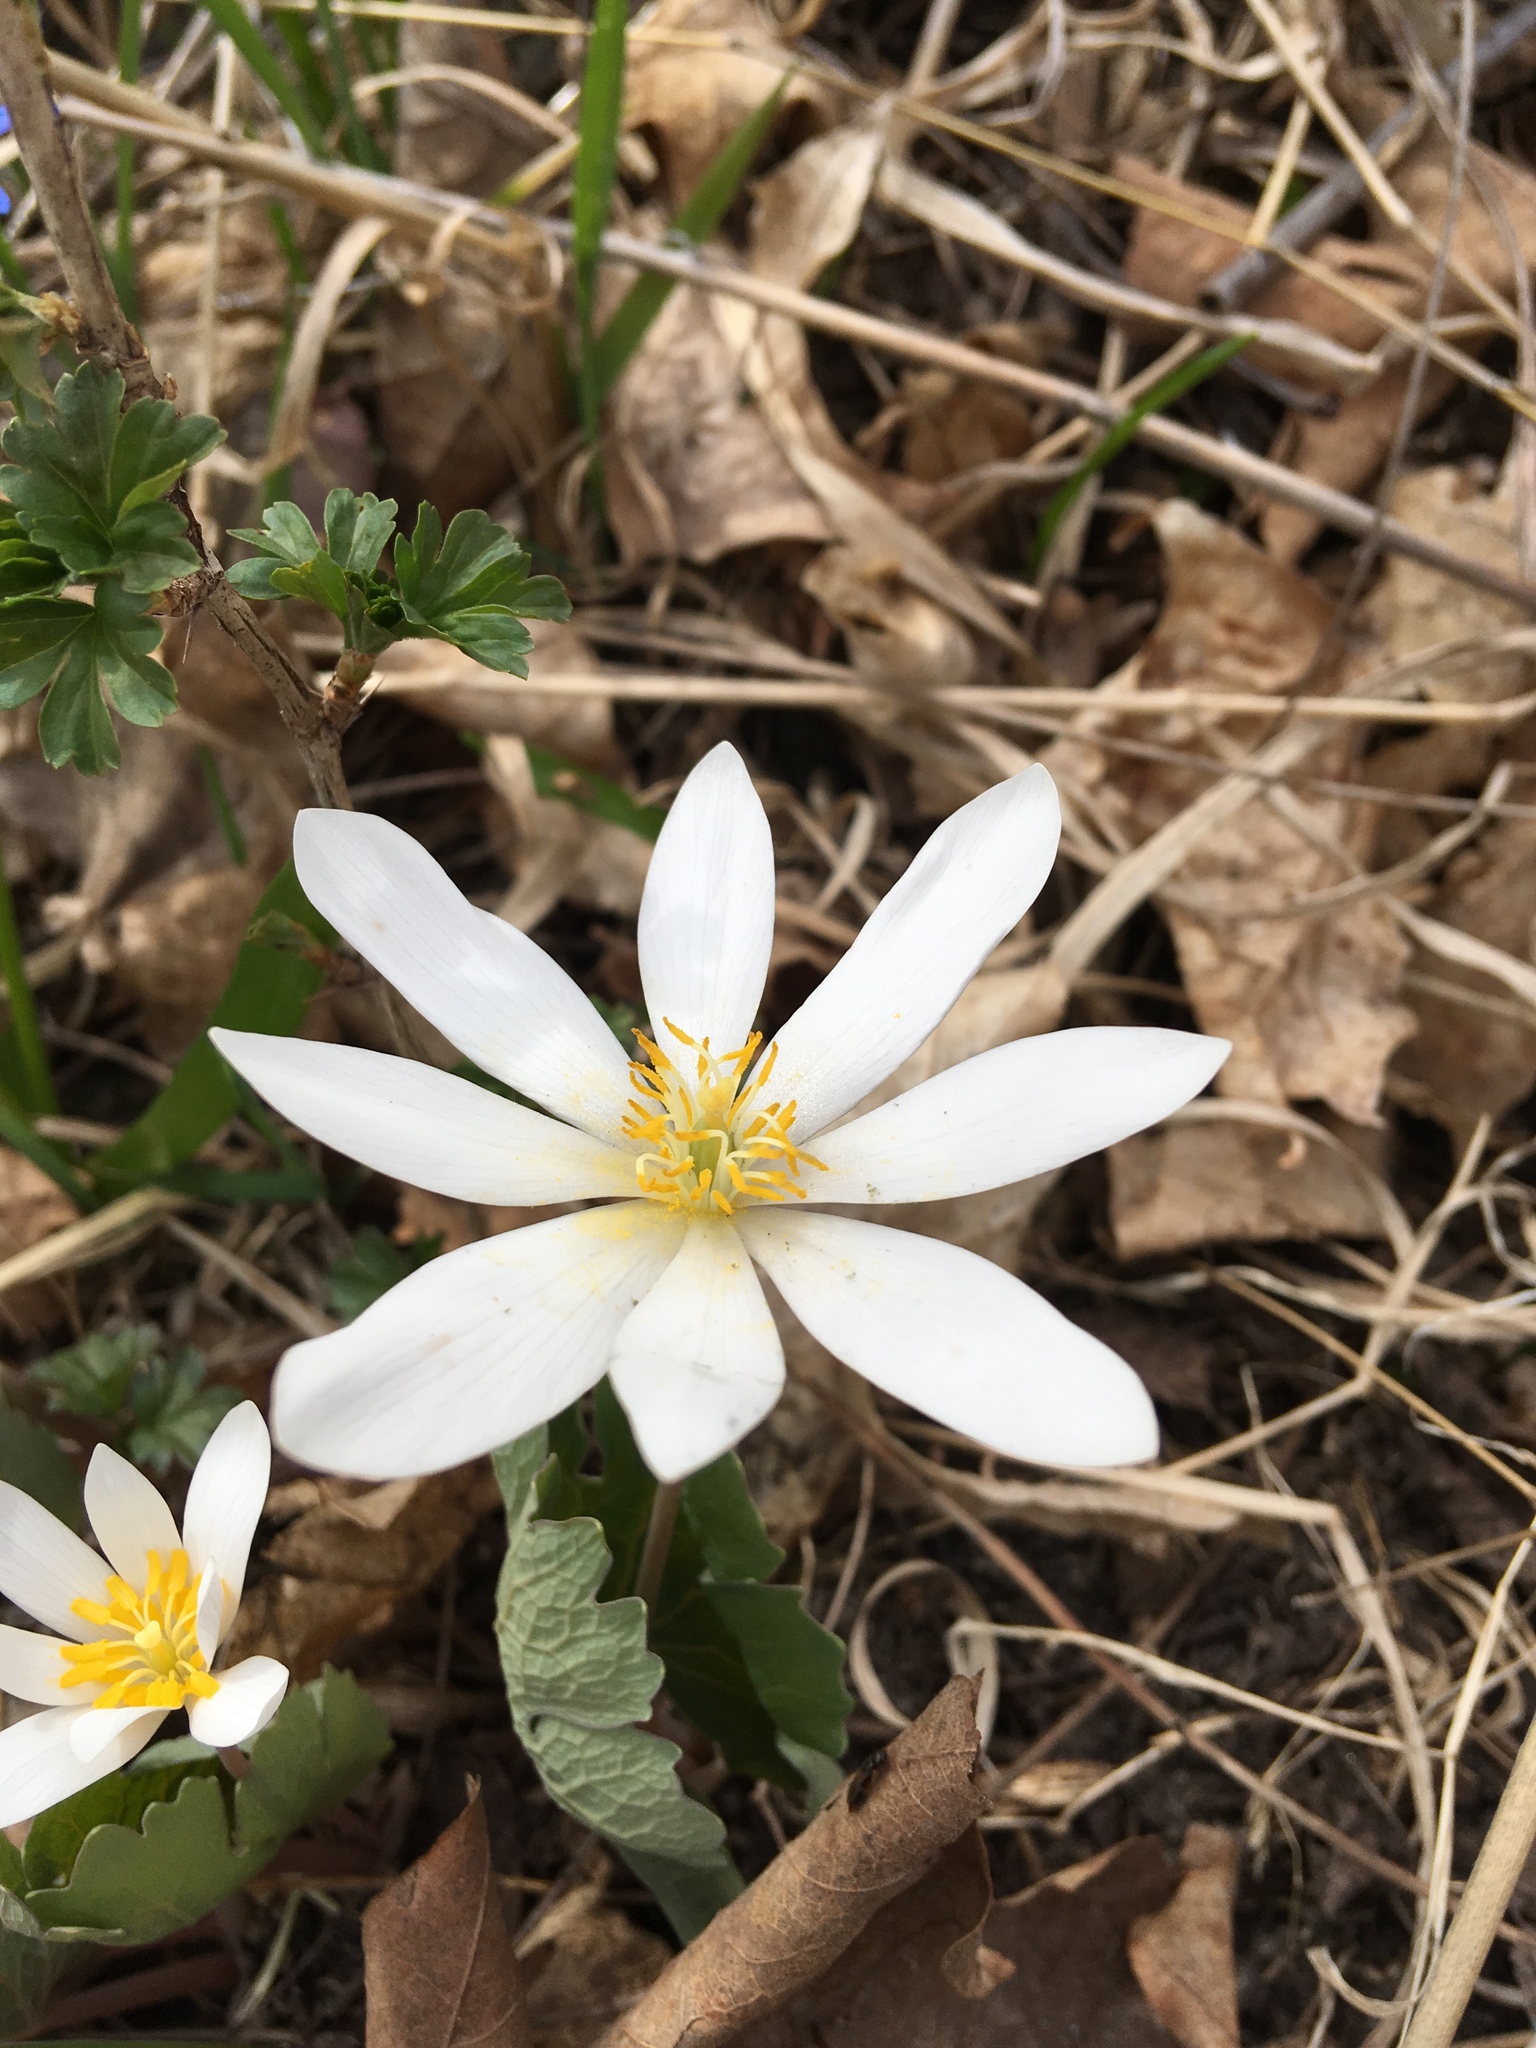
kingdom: Plantae
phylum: Tracheophyta
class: Magnoliopsida
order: Ranunculales
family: Papaveraceae
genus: Sanguinaria
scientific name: Sanguinaria canadensis
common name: Bloodroot
